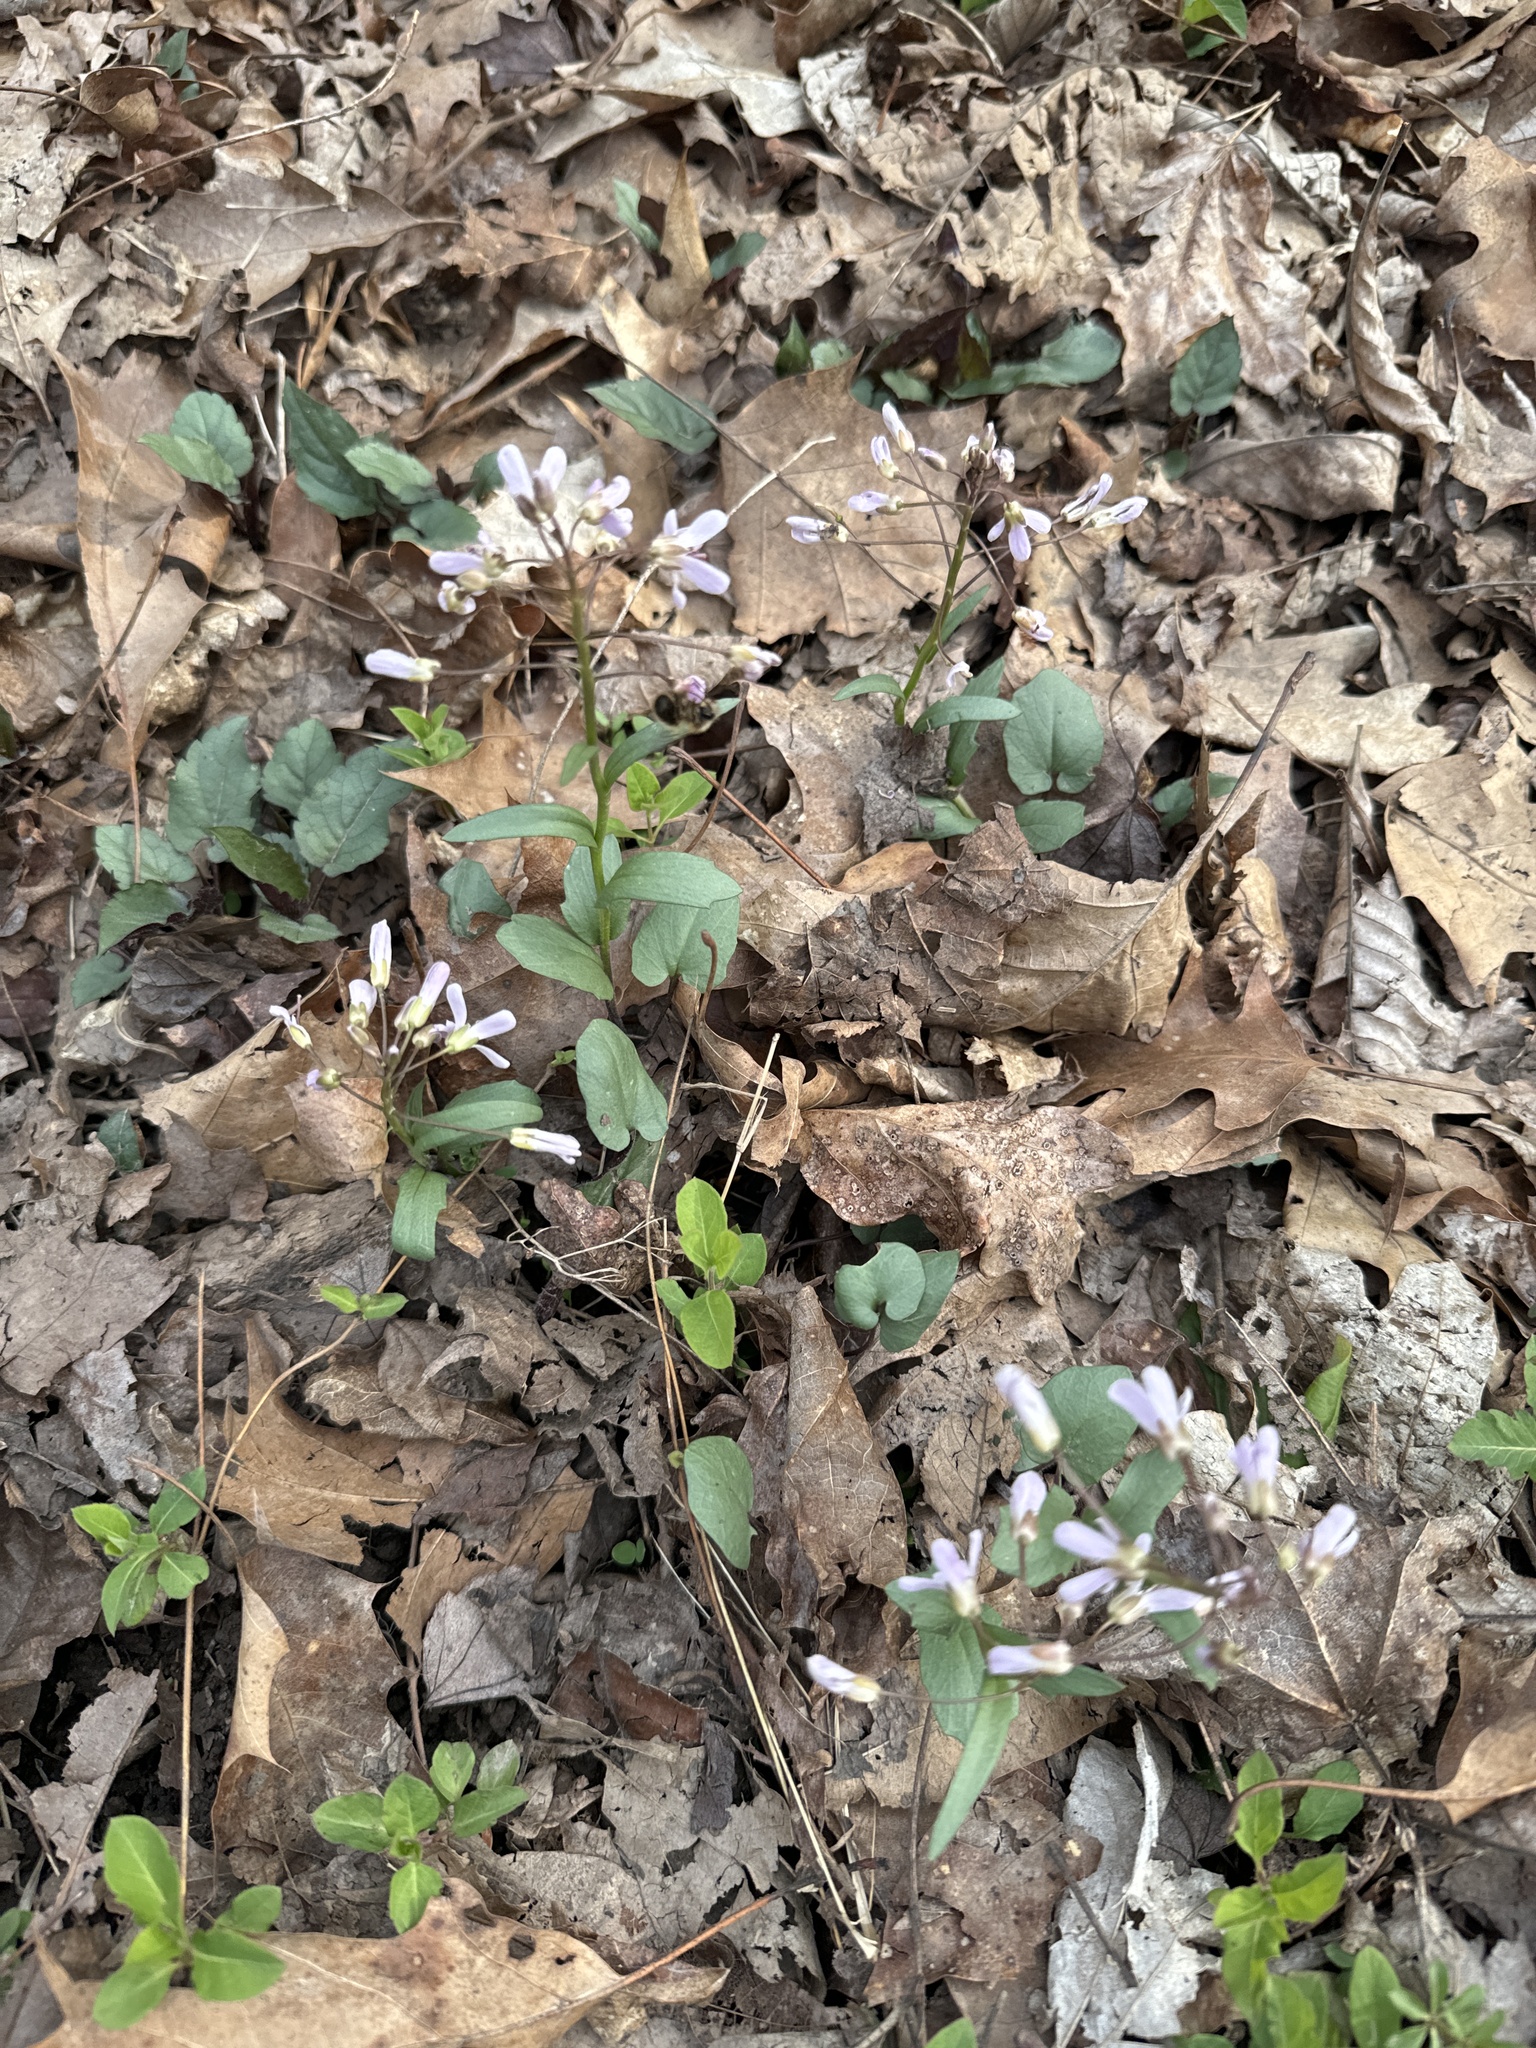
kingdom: Plantae
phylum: Tracheophyta
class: Magnoliopsida
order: Brassicales
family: Brassicaceae
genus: Cardamine
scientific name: Cardamine douglassii
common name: Purple cress
